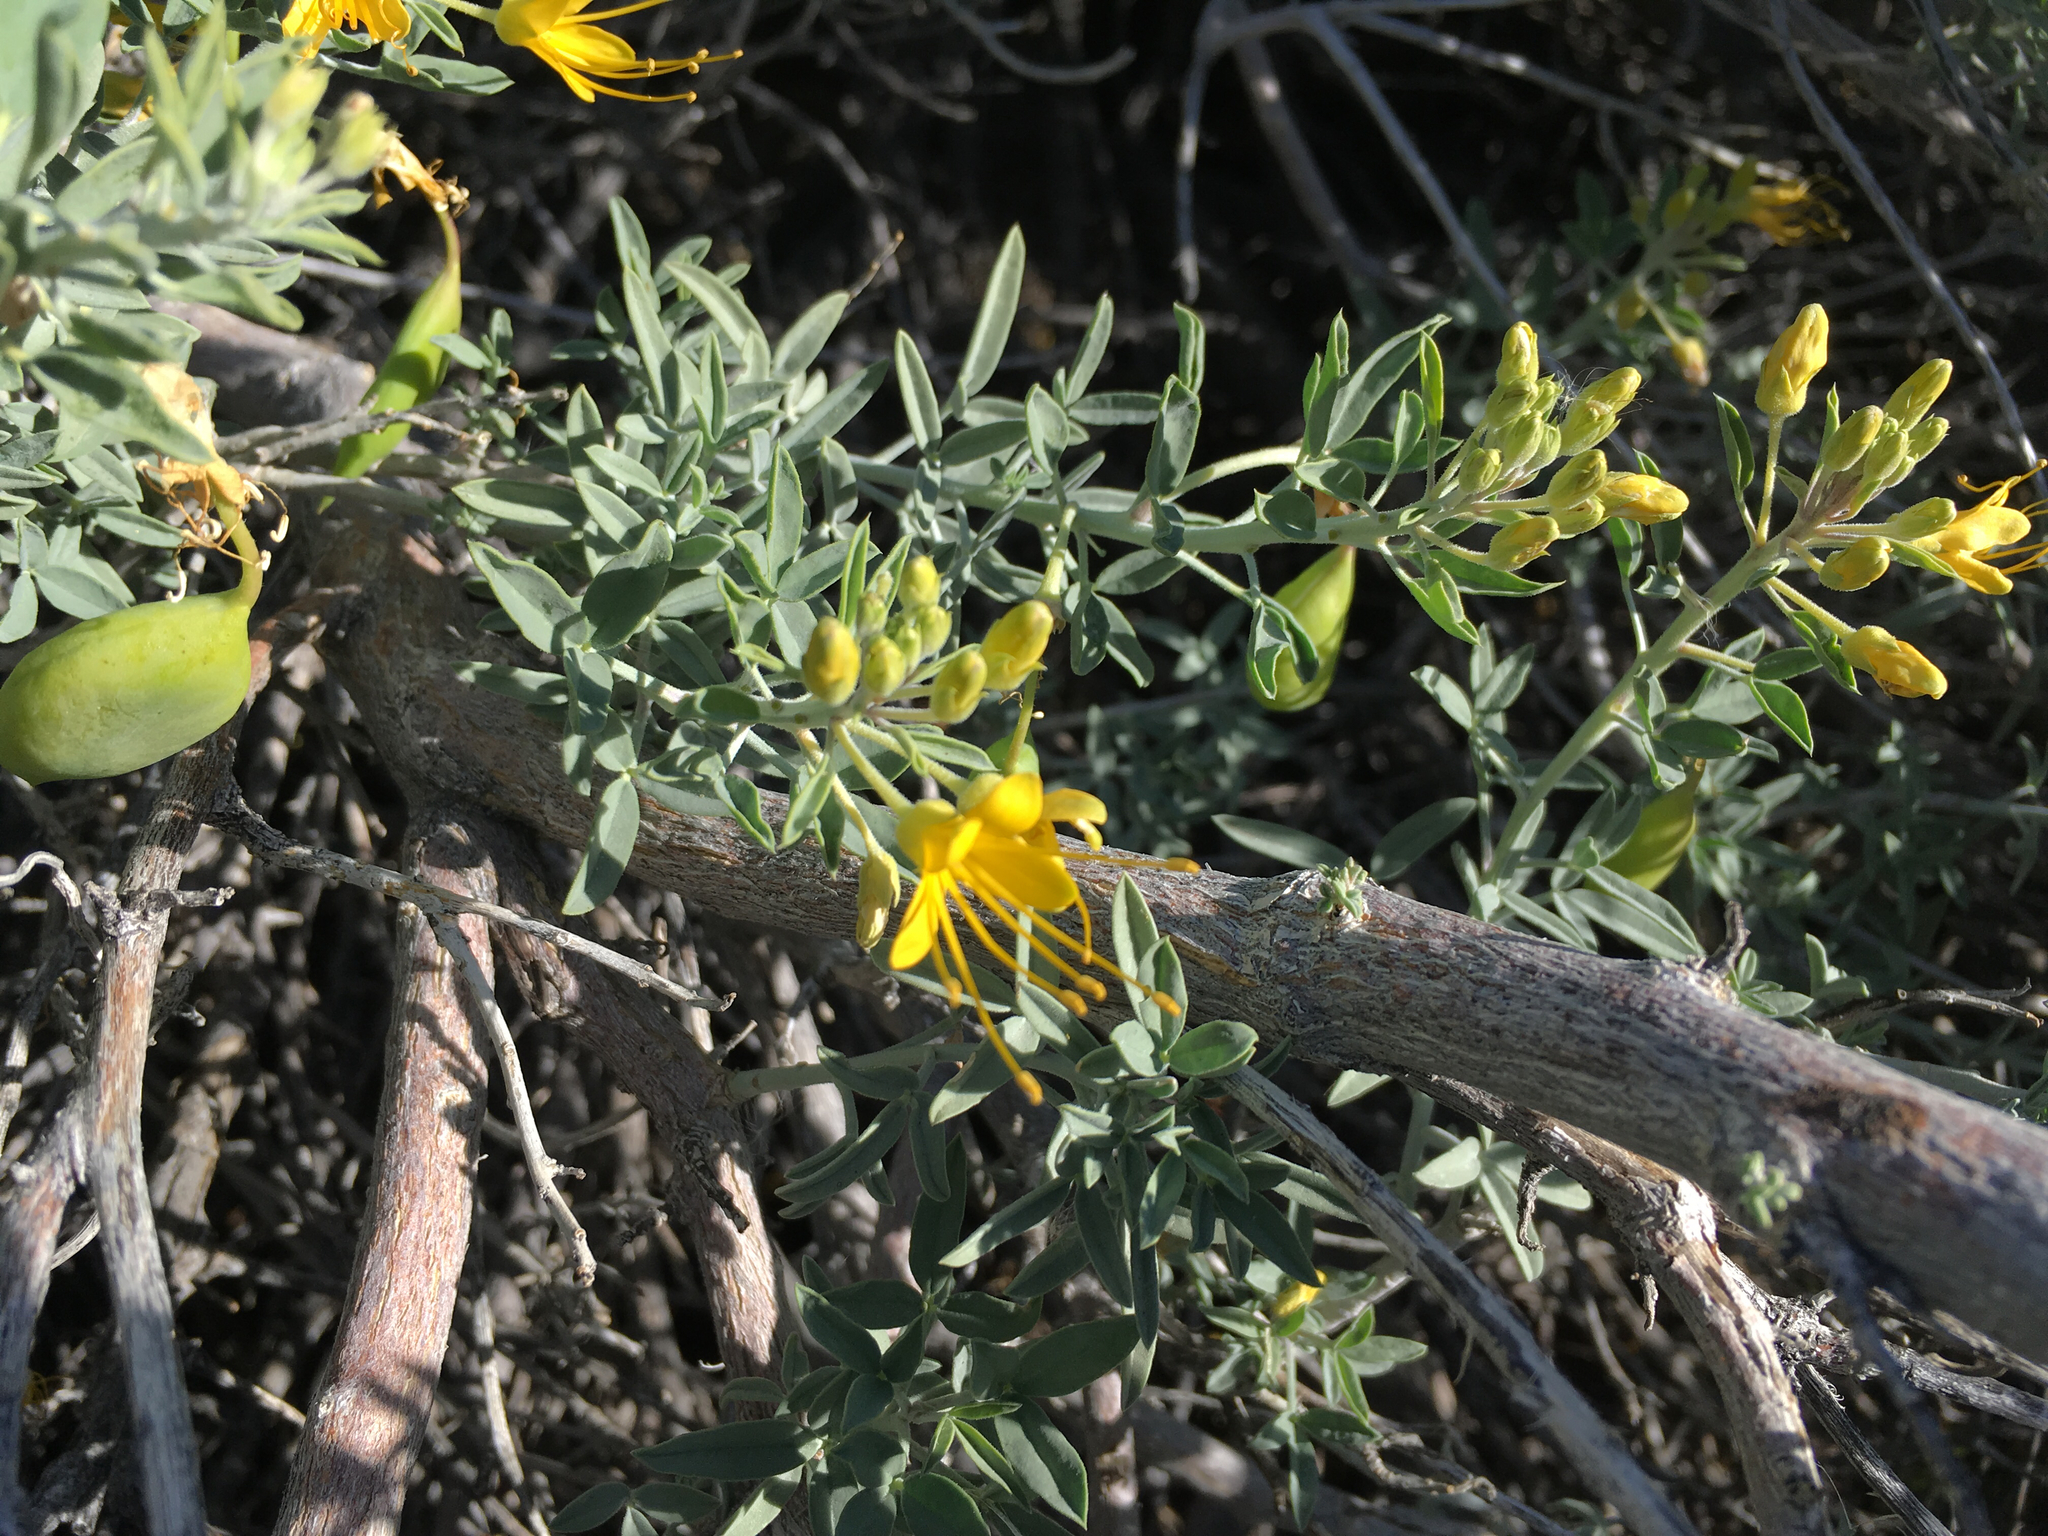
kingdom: Plantae
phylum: Tracheophyta
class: Magnoliopsida
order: Brassicales
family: Cleomaceae
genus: Cleomella
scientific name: Cleomella arborea
